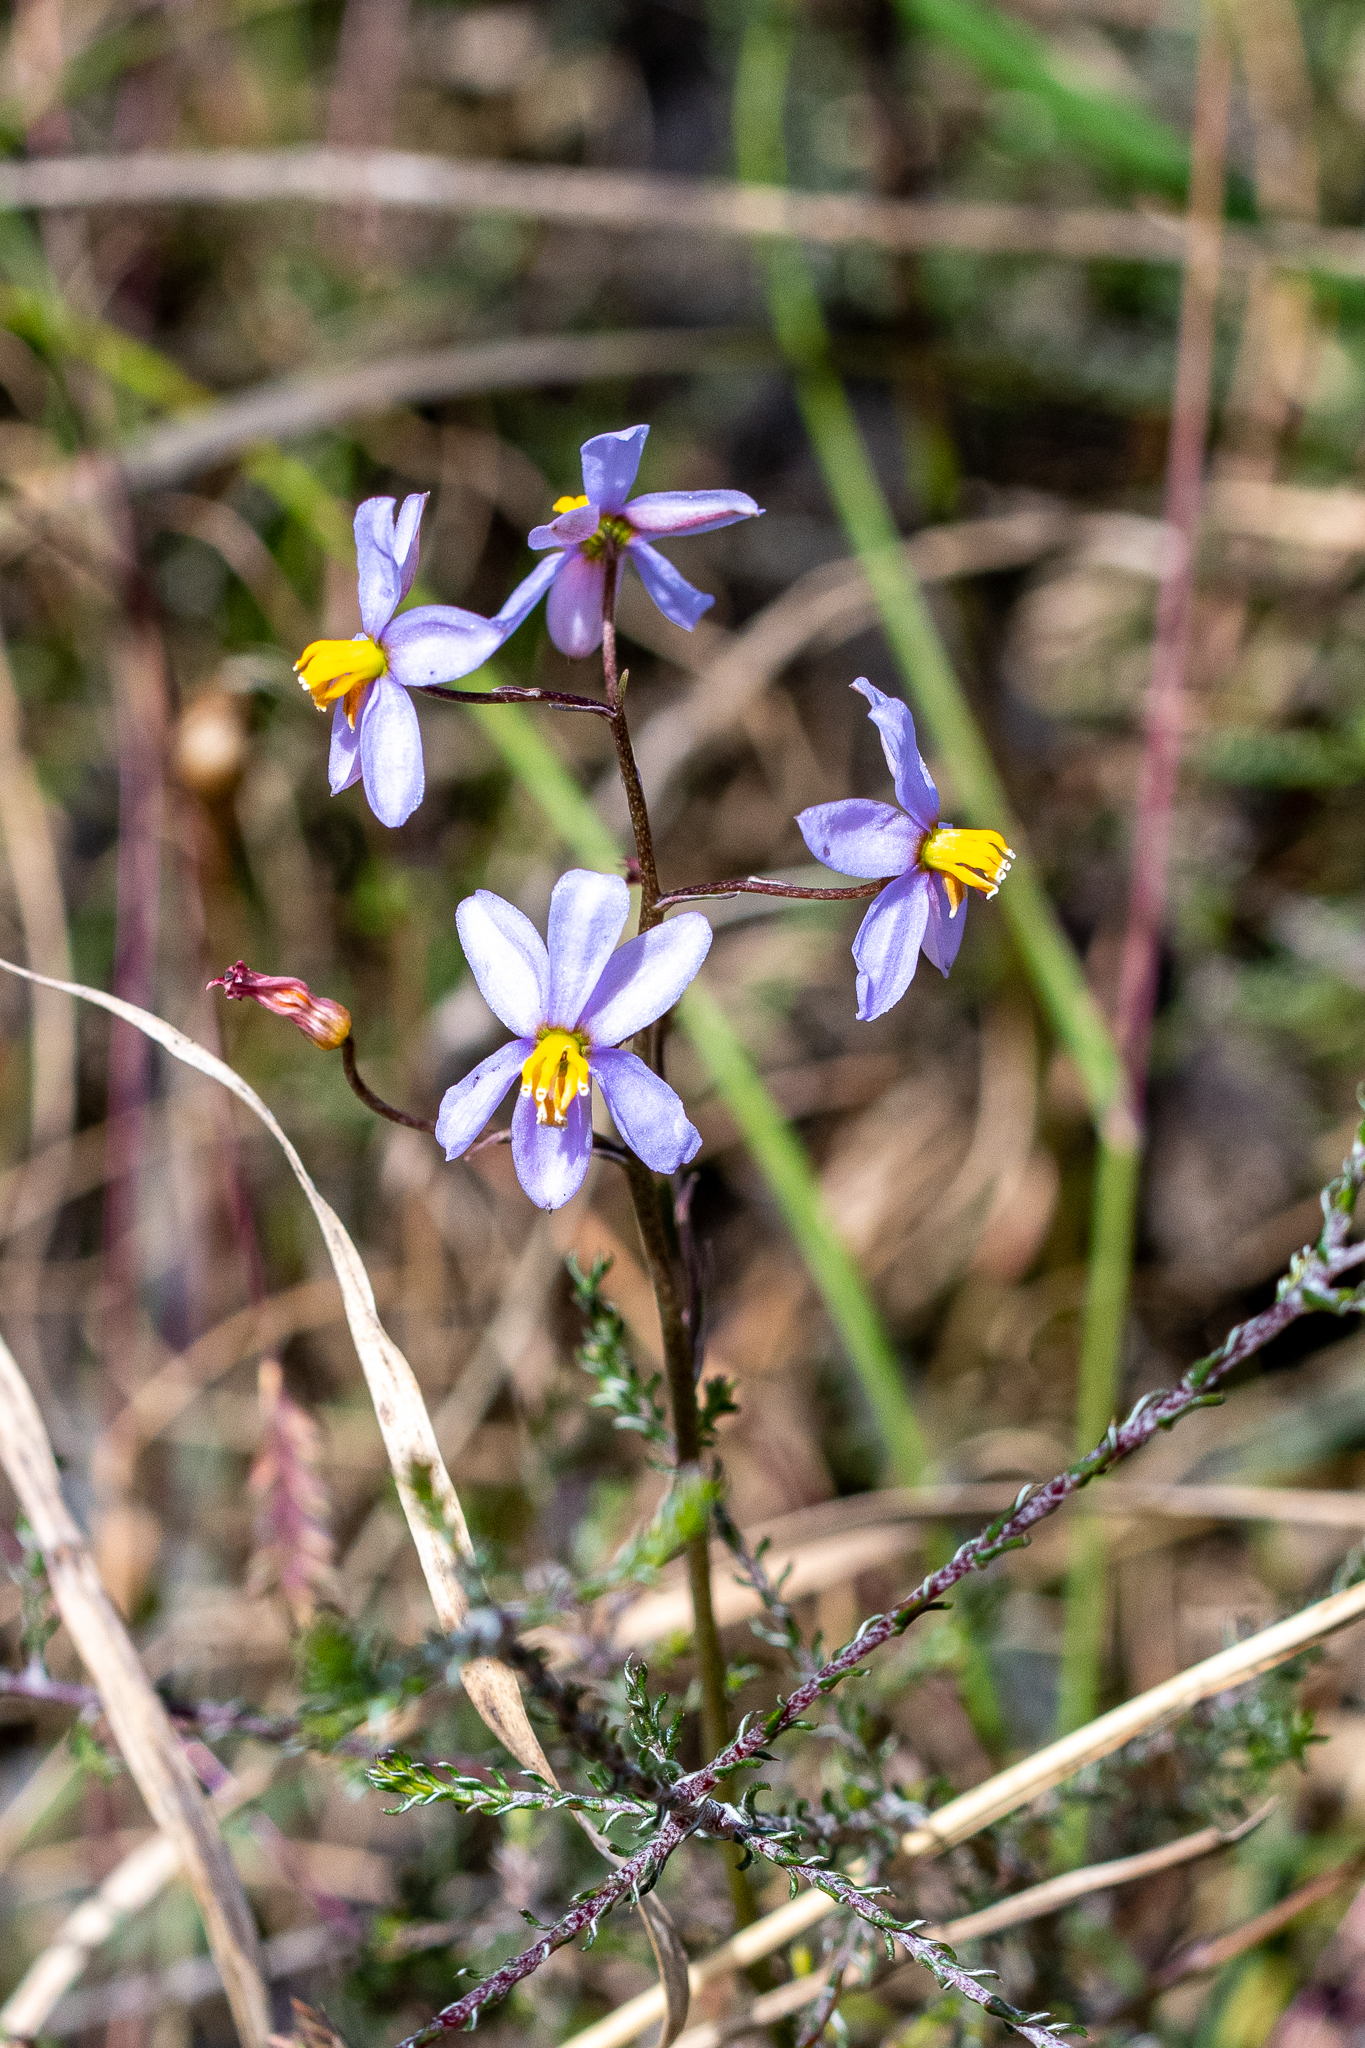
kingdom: Plantae
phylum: Tracheophyta
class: Liliopsida
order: Asparagales
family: Tecophilaeaceae
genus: Cyanella
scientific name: Cyanella hyacinthoides
